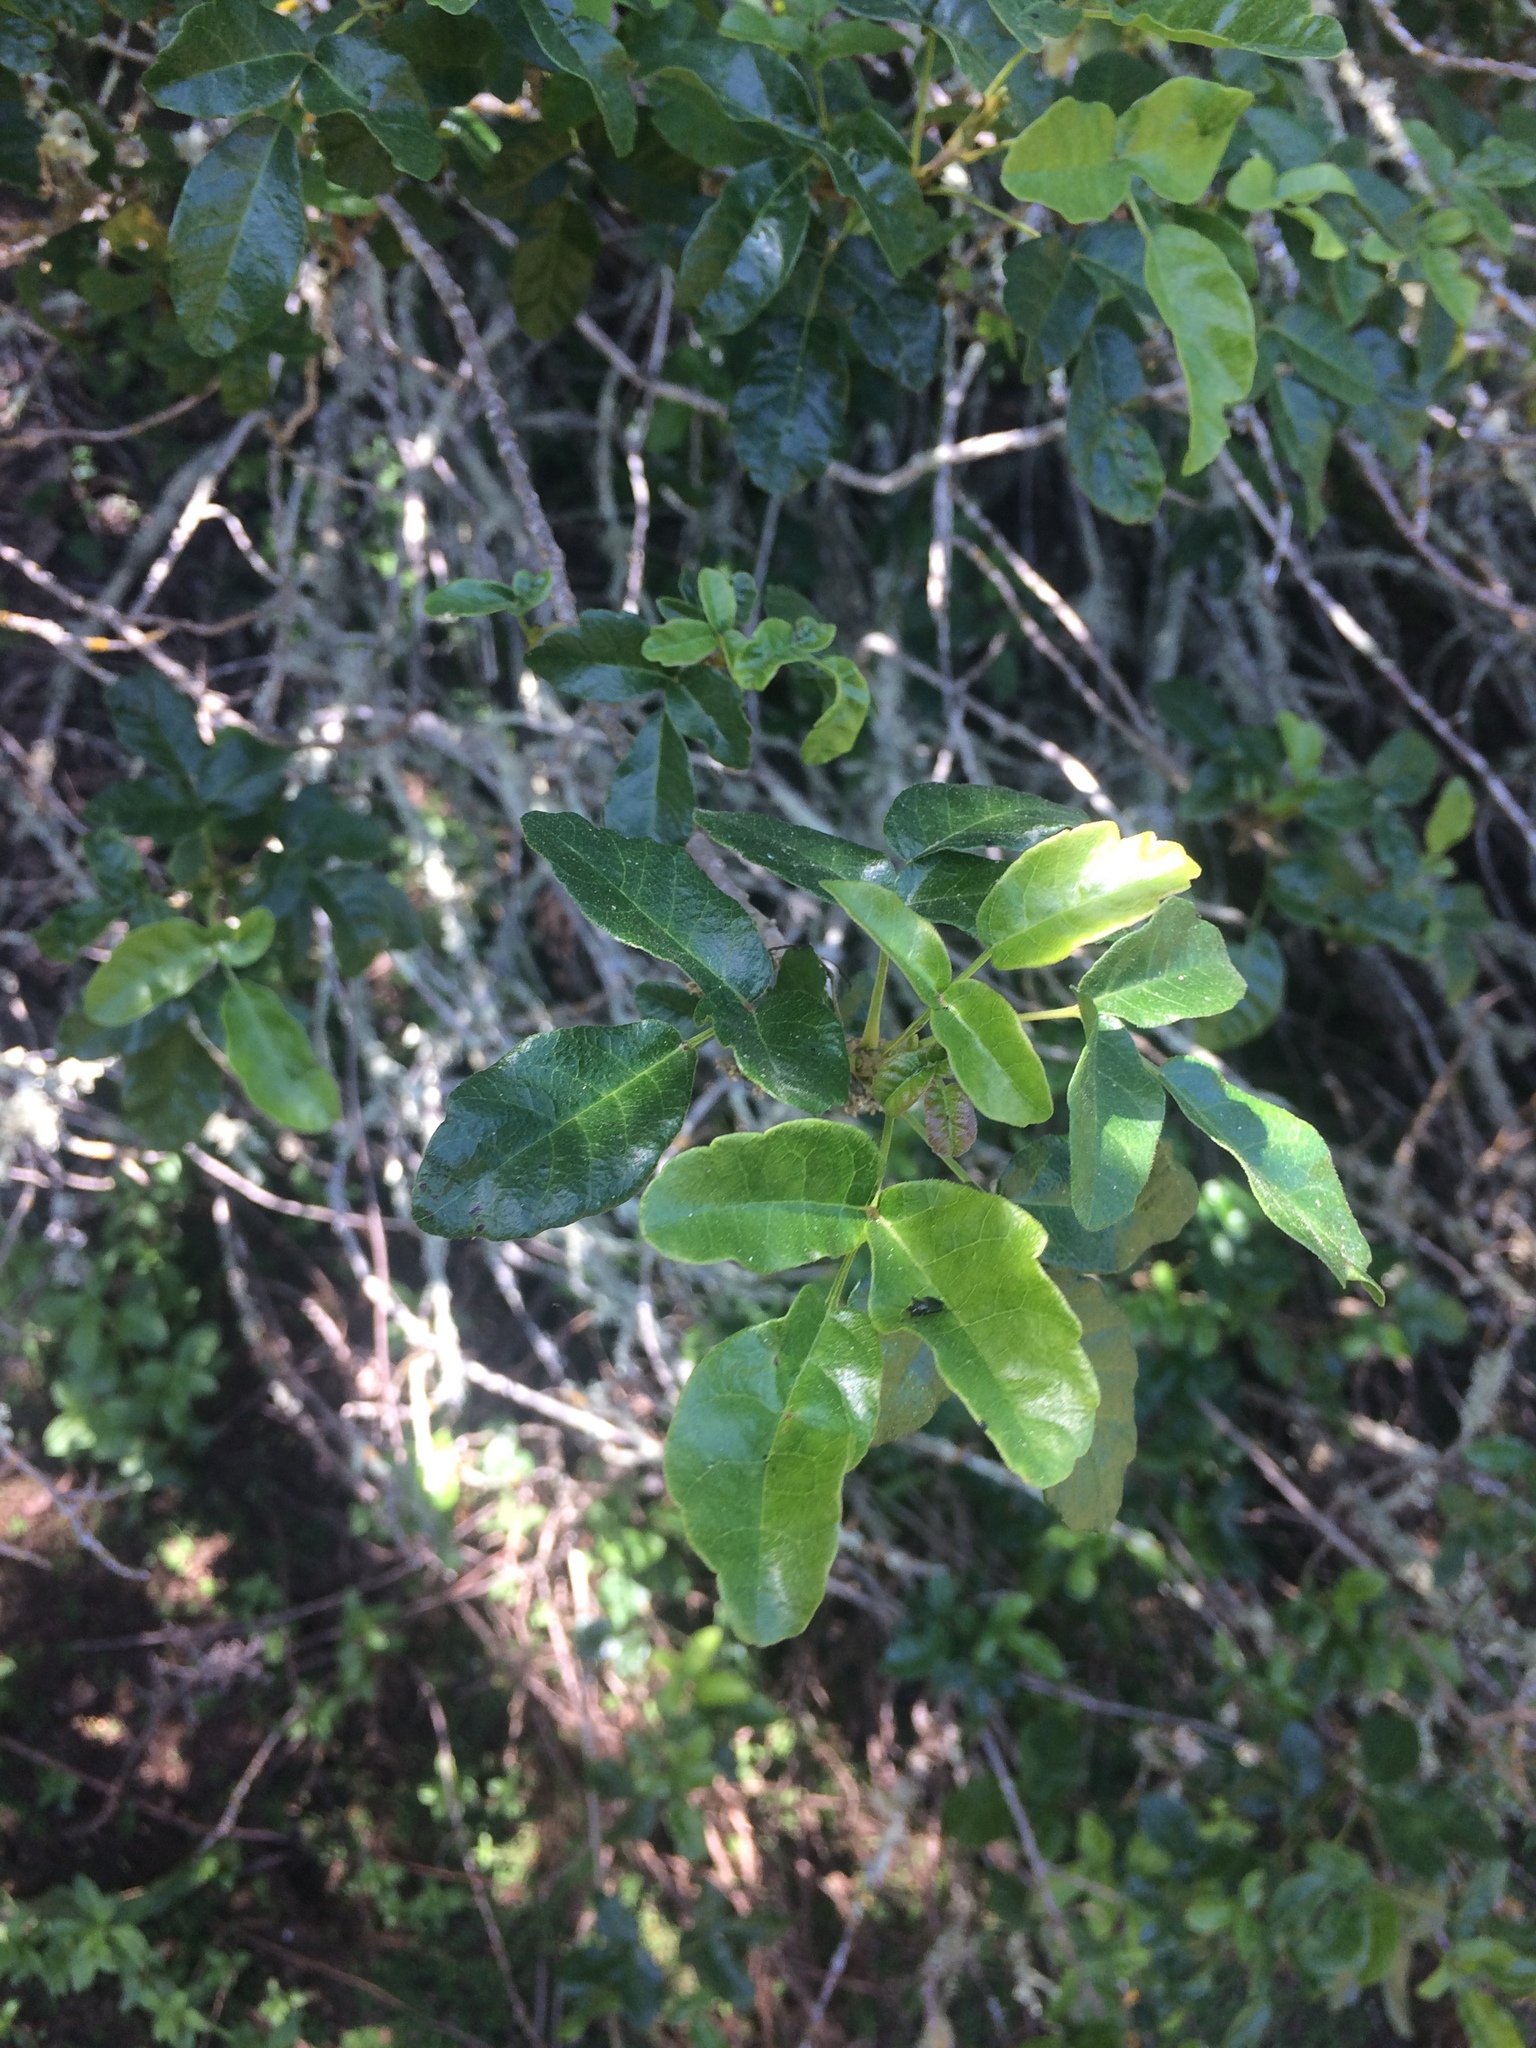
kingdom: Plantae
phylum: Tracheophyta
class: Magnoliopsida
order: Sapindales
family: Anacardiaceae
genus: Toxicodendron
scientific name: Toxicodendron diversilobum
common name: Pacific poison-oak
